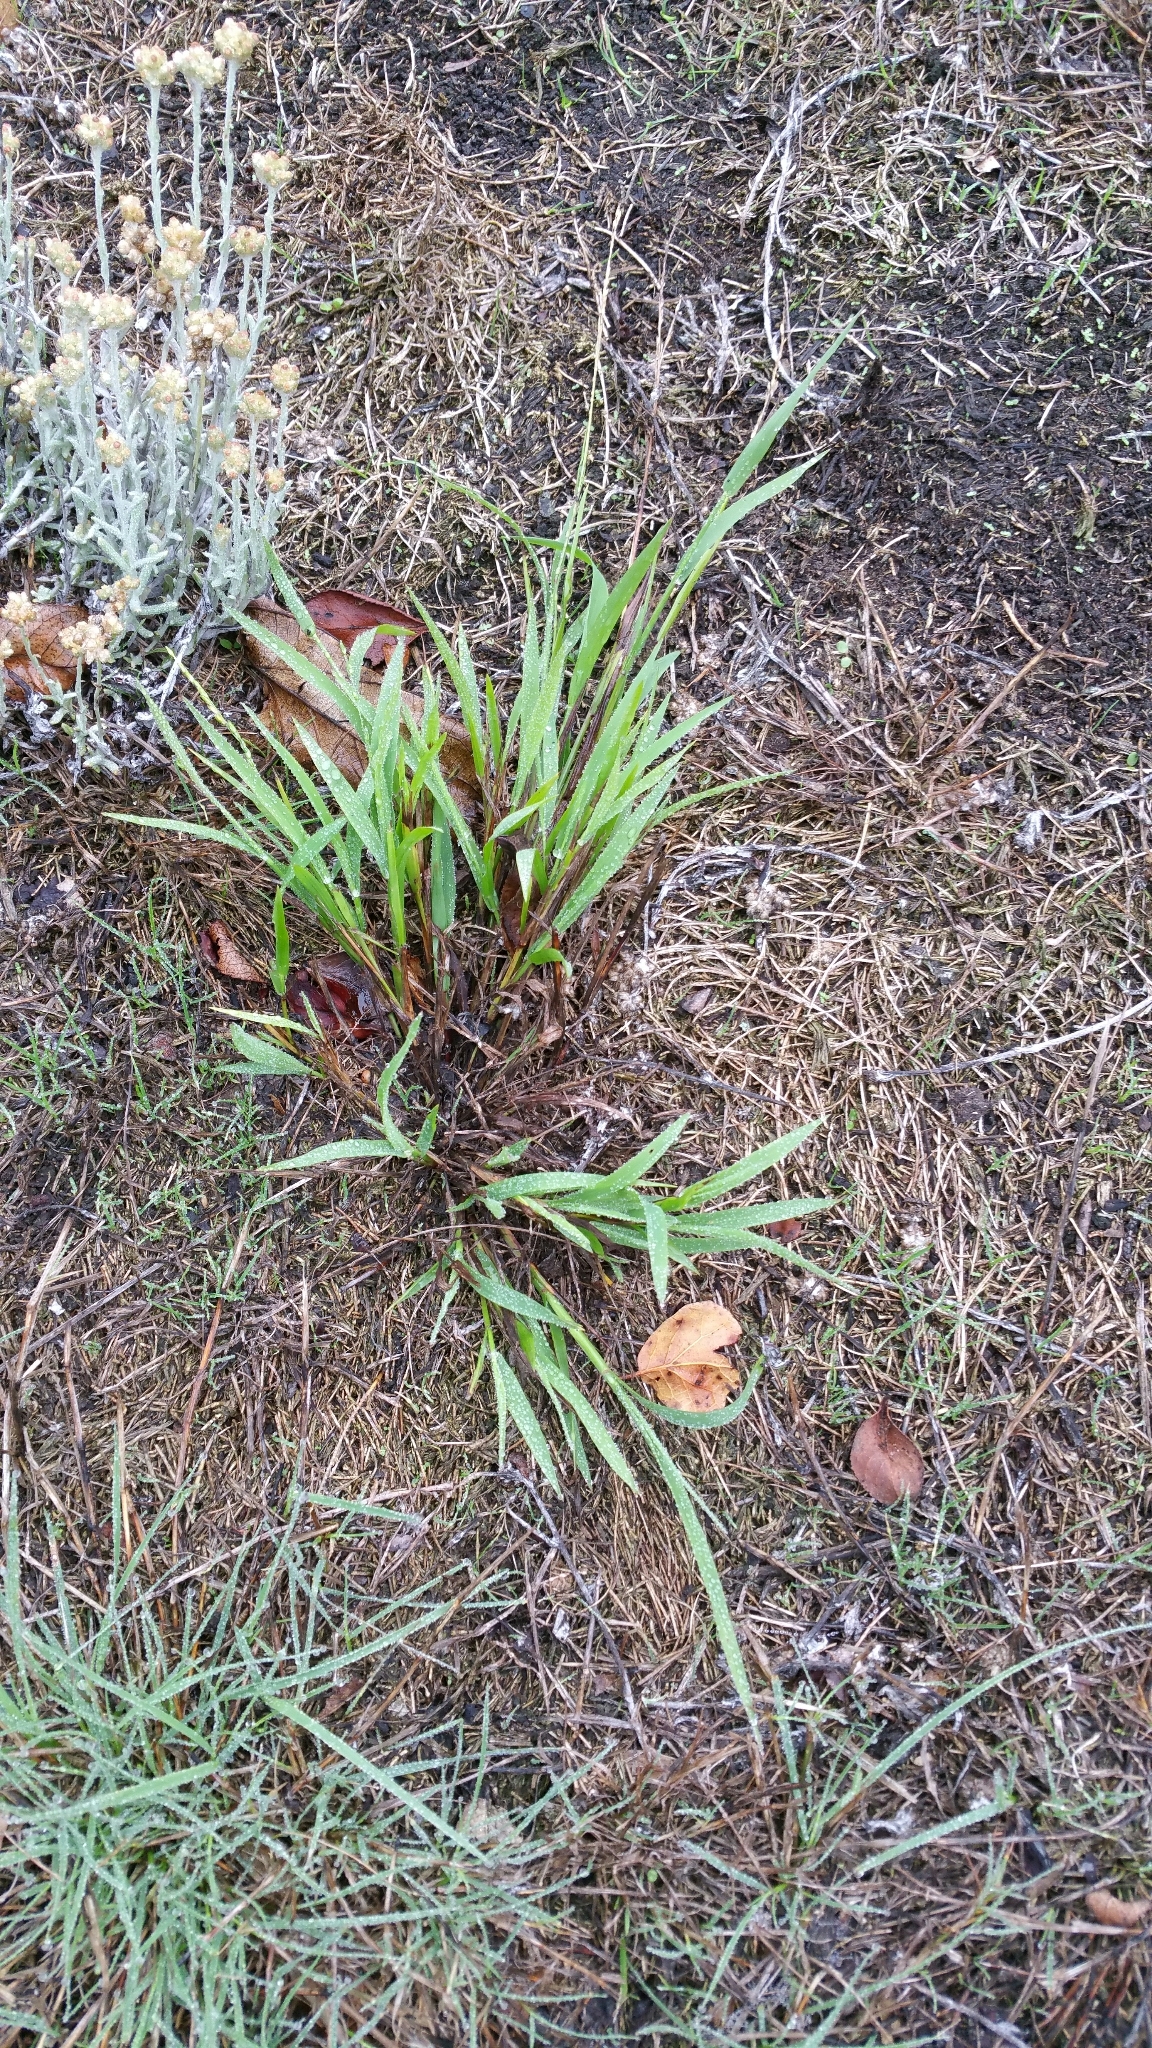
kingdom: Plantae
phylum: Tracheophyta
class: Liliopsida
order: Poales
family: Poaceae
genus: Ehrharta
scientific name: Ehrharta erecta
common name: Panic veldtgrass
